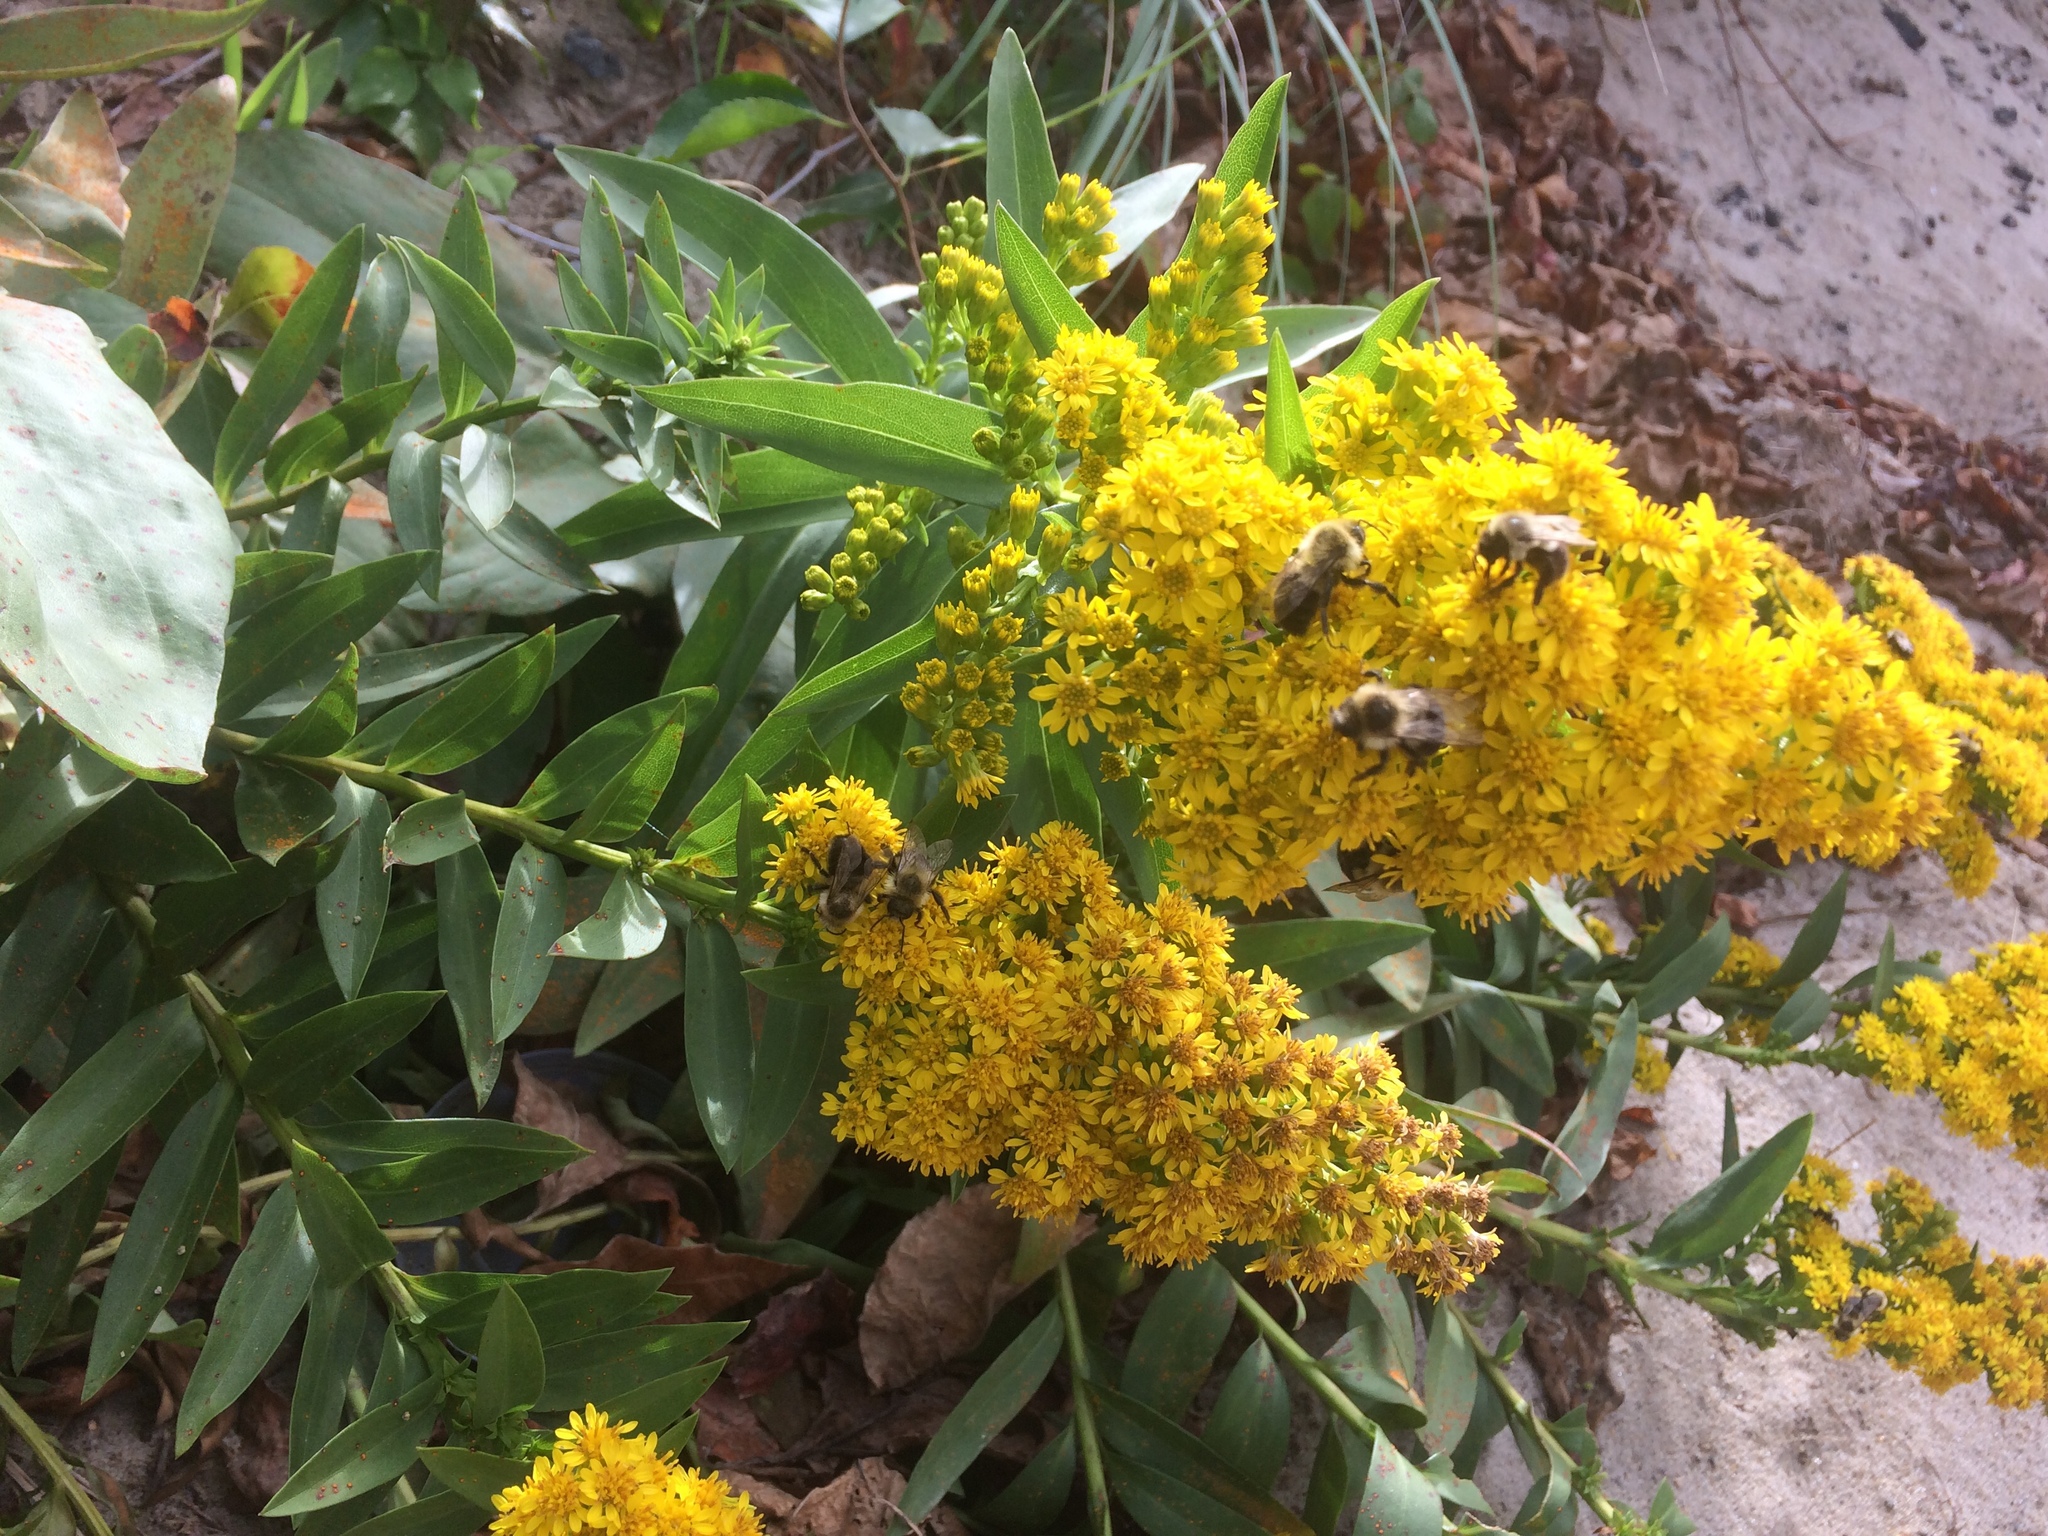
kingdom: Plantae
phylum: Tracheophyta
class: Magnoliopsida
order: Asterales
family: Asteraceae
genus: Solidago
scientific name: Solidago sempervirens
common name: Salt-marsh goldenrod
